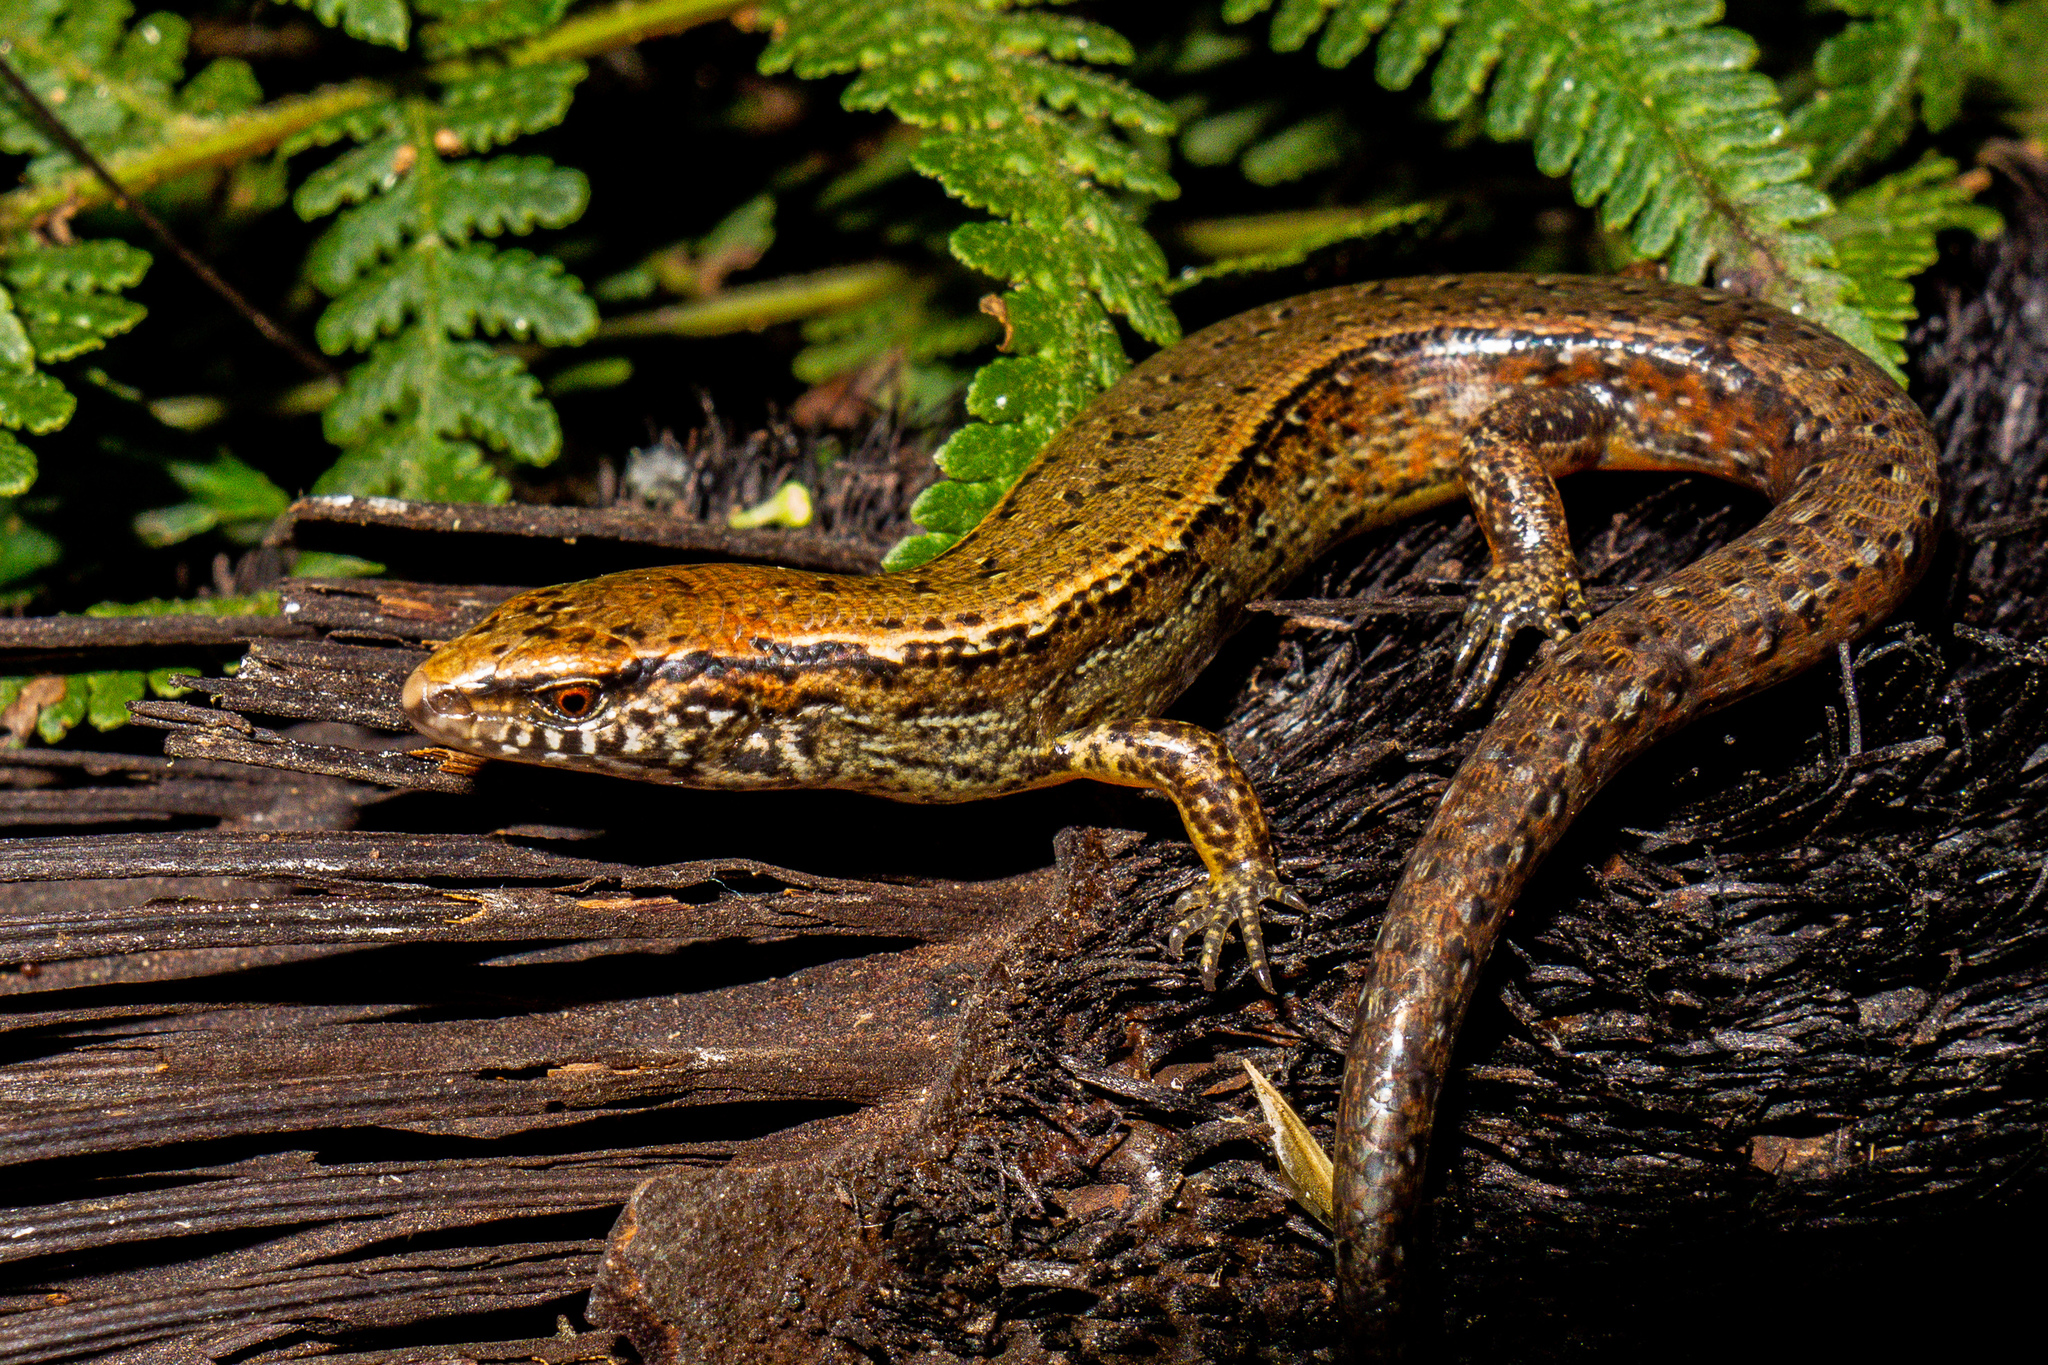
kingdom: Animalia
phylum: Chordata
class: Squamata
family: Scincidae
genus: Oligosoma
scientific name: Oligosoma aeneum
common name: Copper skink
